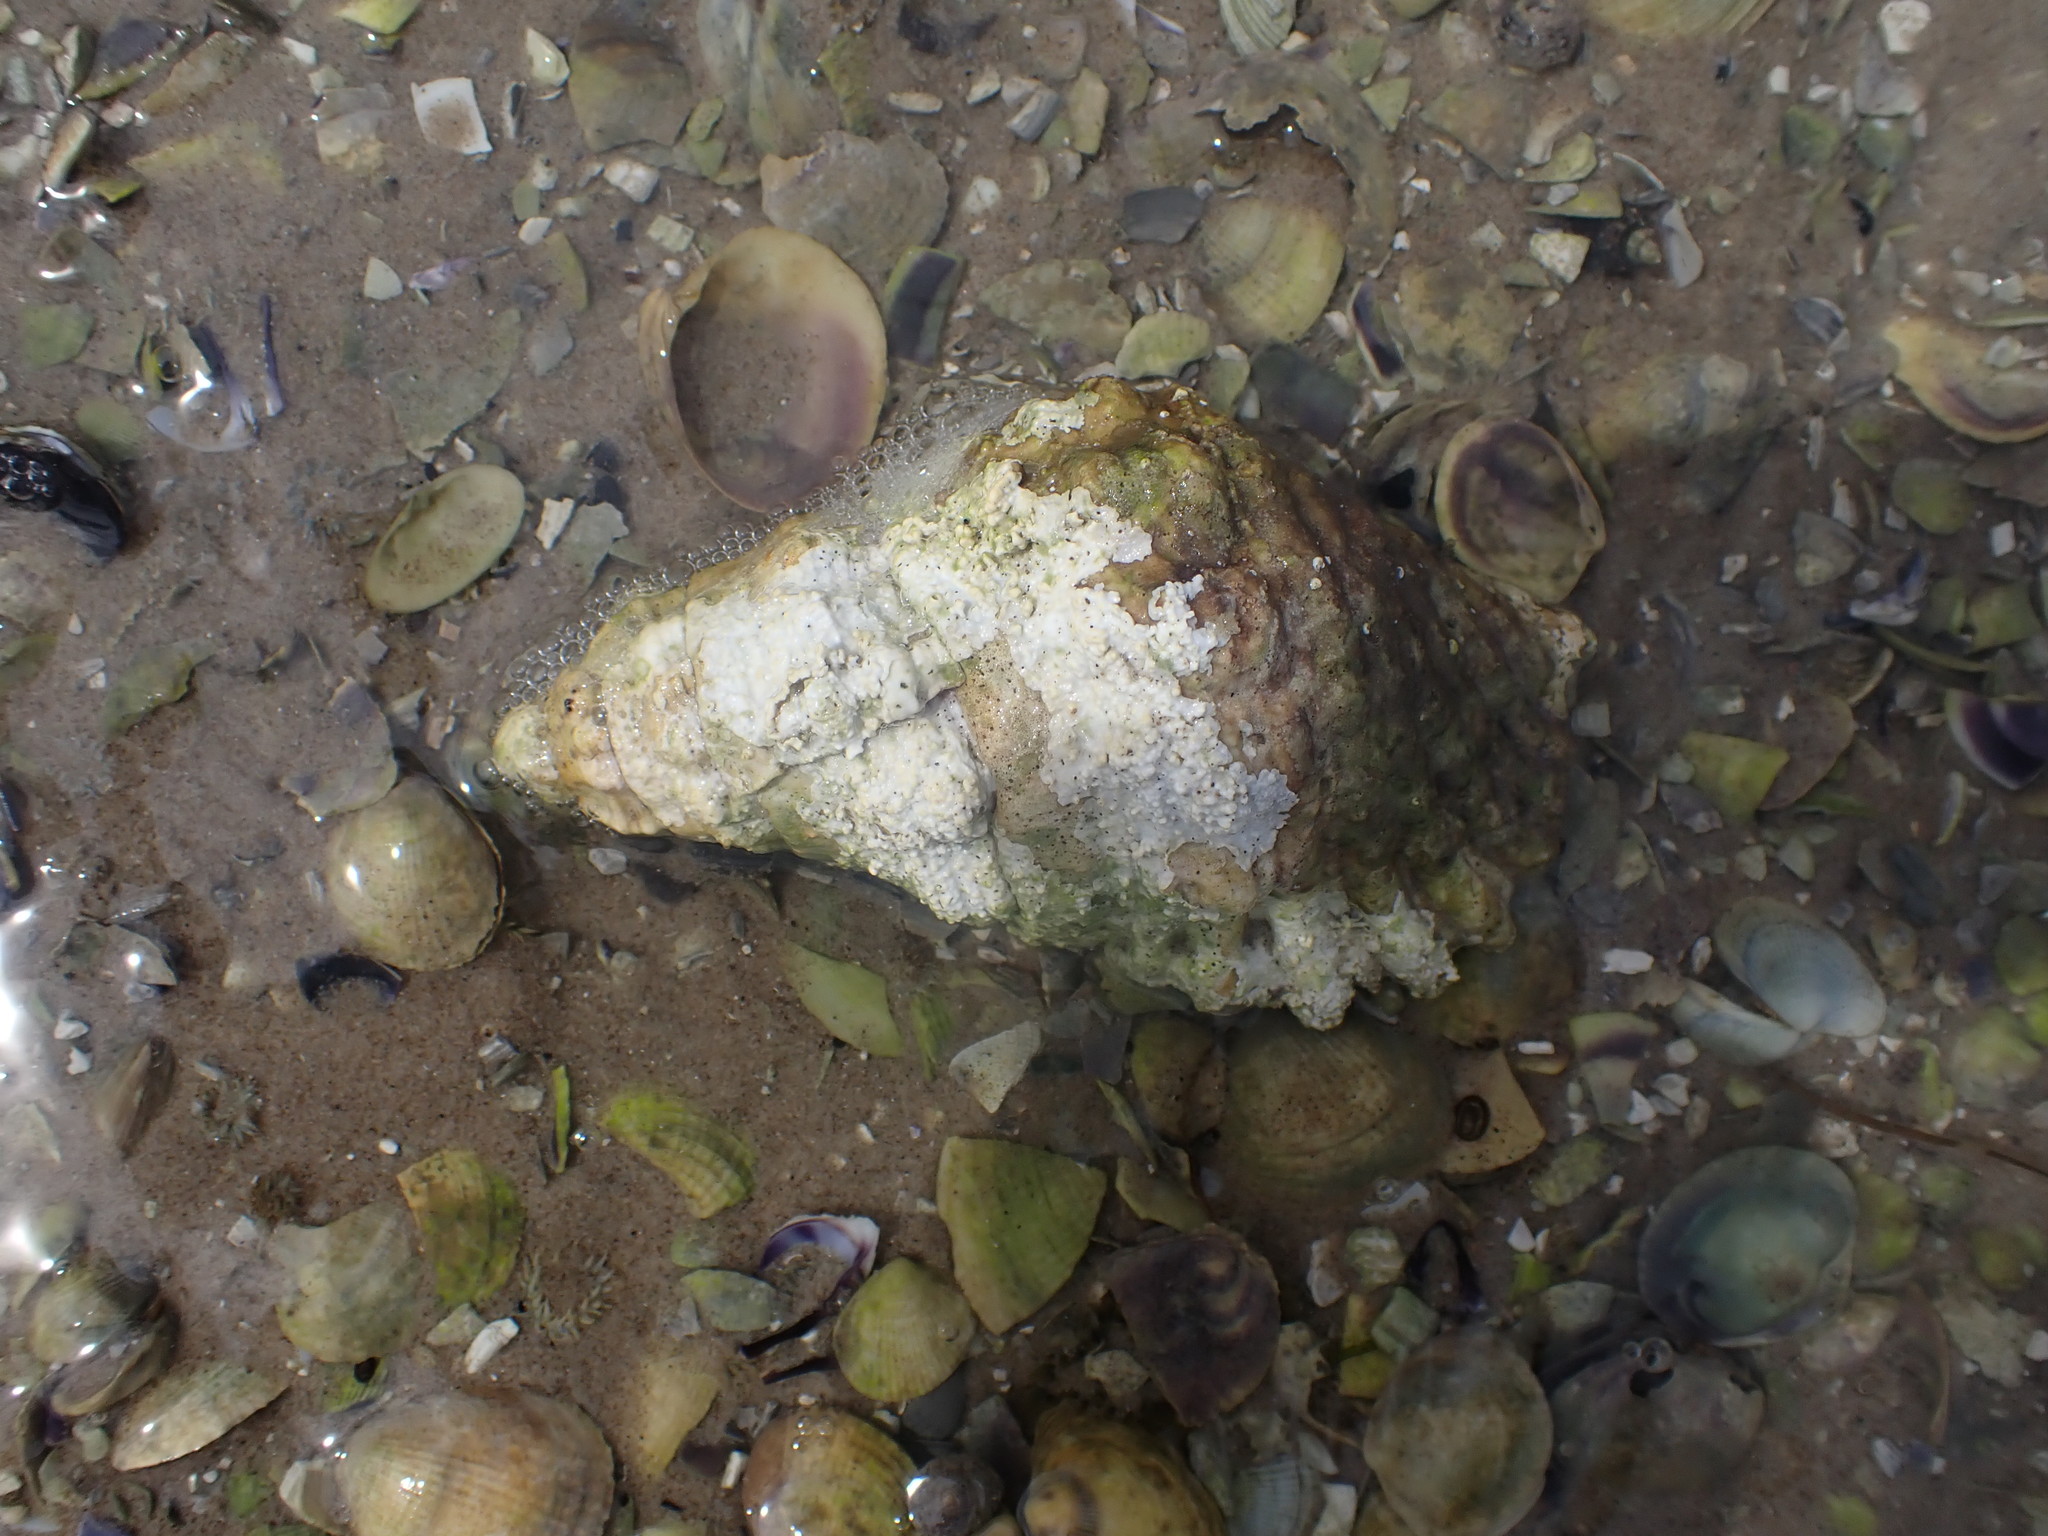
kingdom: Animalia
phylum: Mollusca
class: Gastropoda
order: Littorinimorpha
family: Cymatiidae
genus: Cabestana
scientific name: Cabestana spengleri
